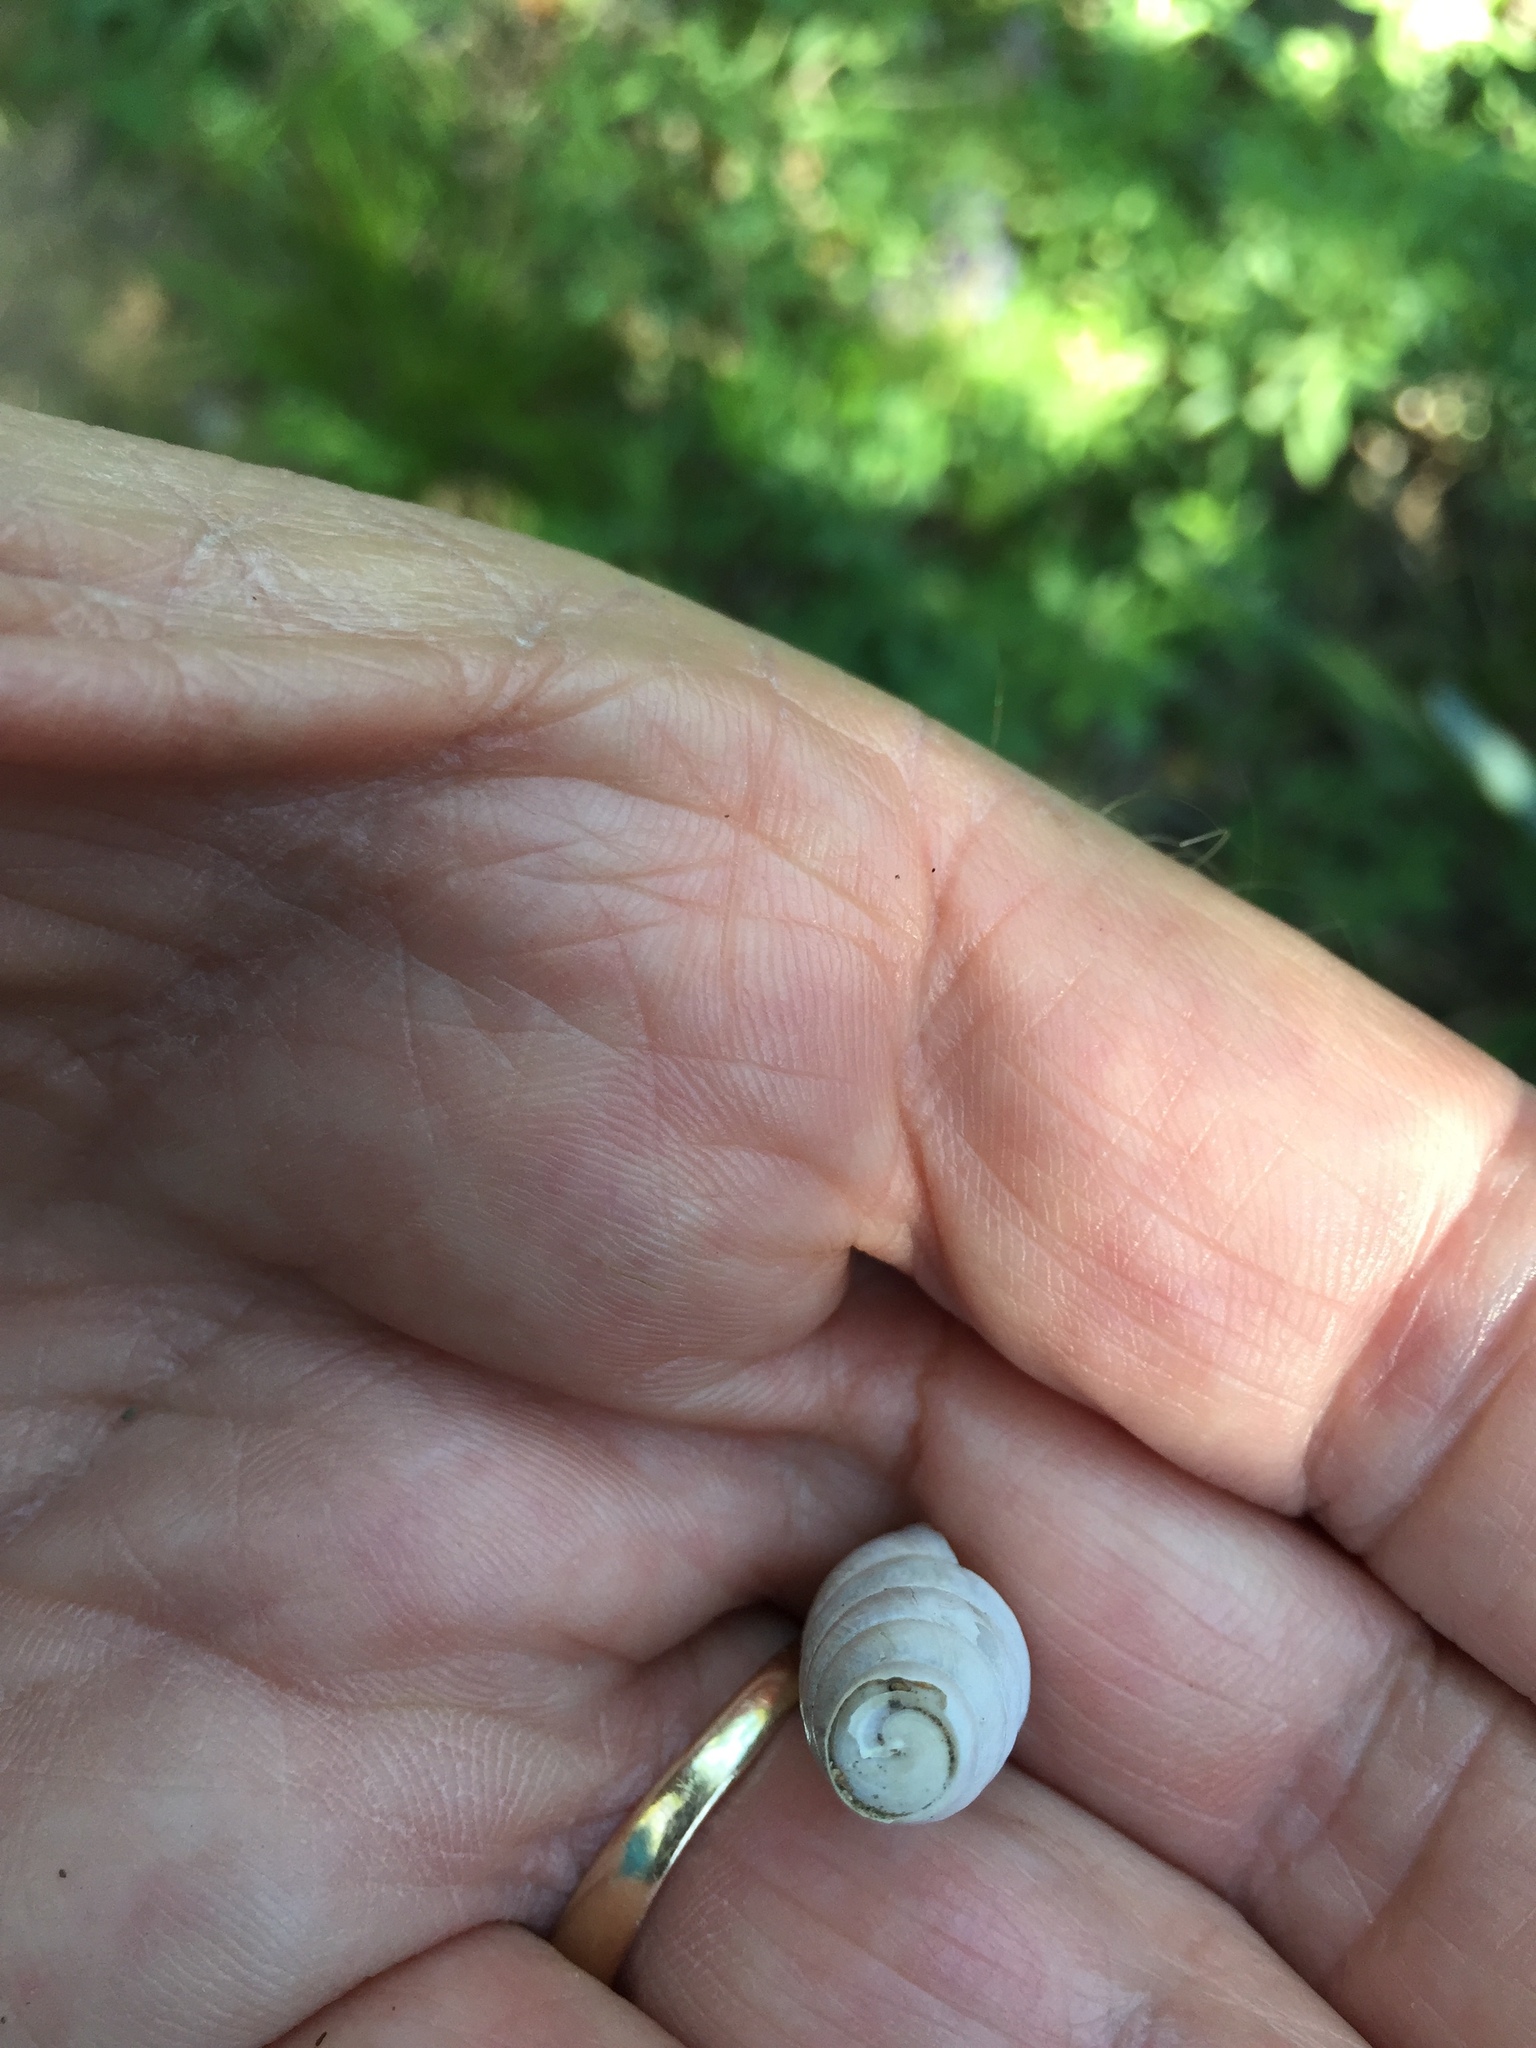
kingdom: Animalia
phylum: Mollusca
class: Gastropoda
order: Stylommatophora
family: Achatinidae
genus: Rumina
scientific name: Rumina decollata
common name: Decollate snail
